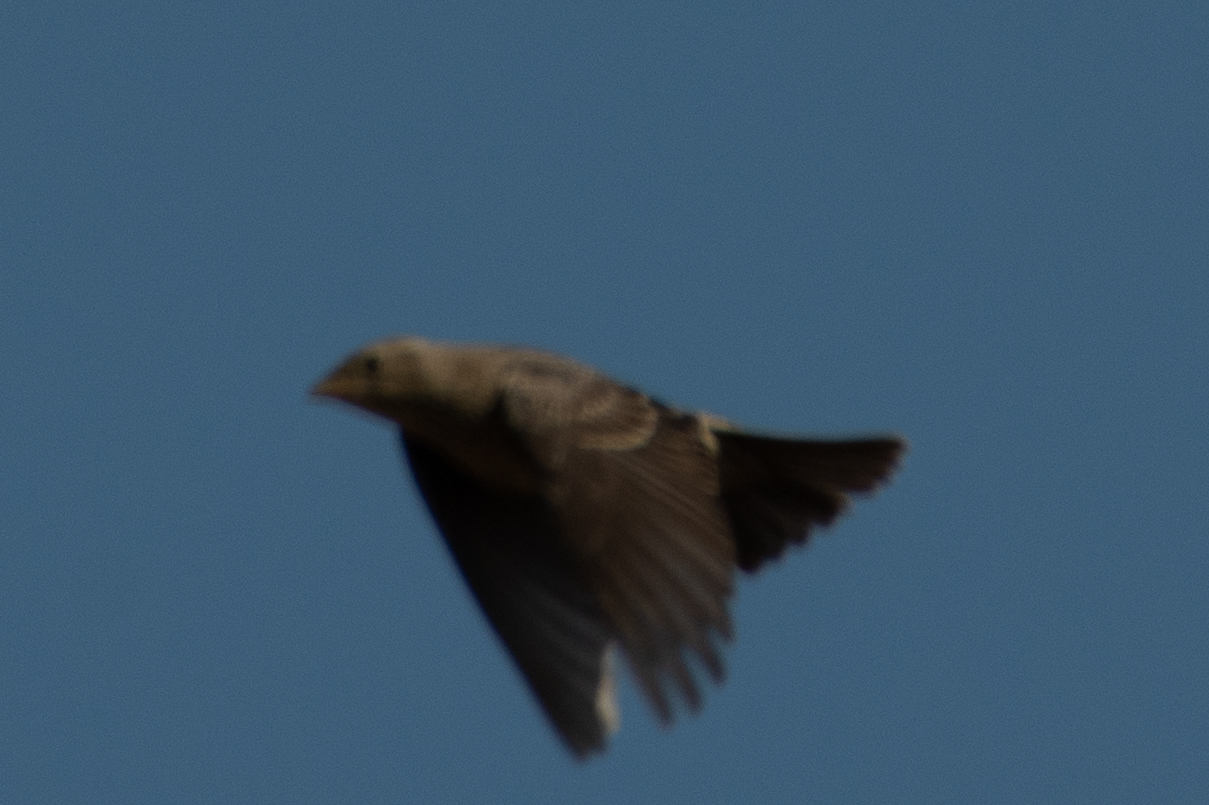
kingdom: Animalia
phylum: Chordata
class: Aves
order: Passeriformes
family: Icteridae
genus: Molothrus
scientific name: Molothrus ater
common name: Brown-headed cowbird
